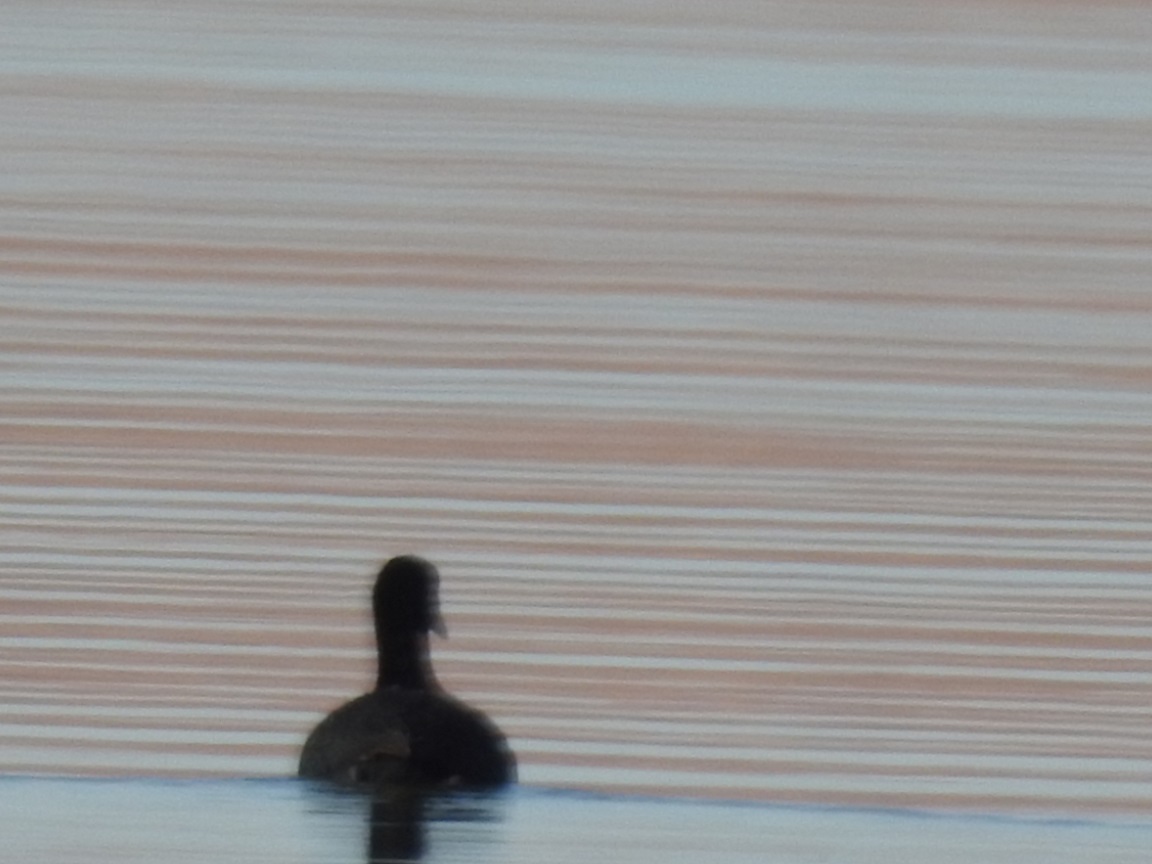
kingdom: Animalia
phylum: Chordata
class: Aves
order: Gruiformes
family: Rallidae
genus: Fulica
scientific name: Fulica atra
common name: Eurasian coot
